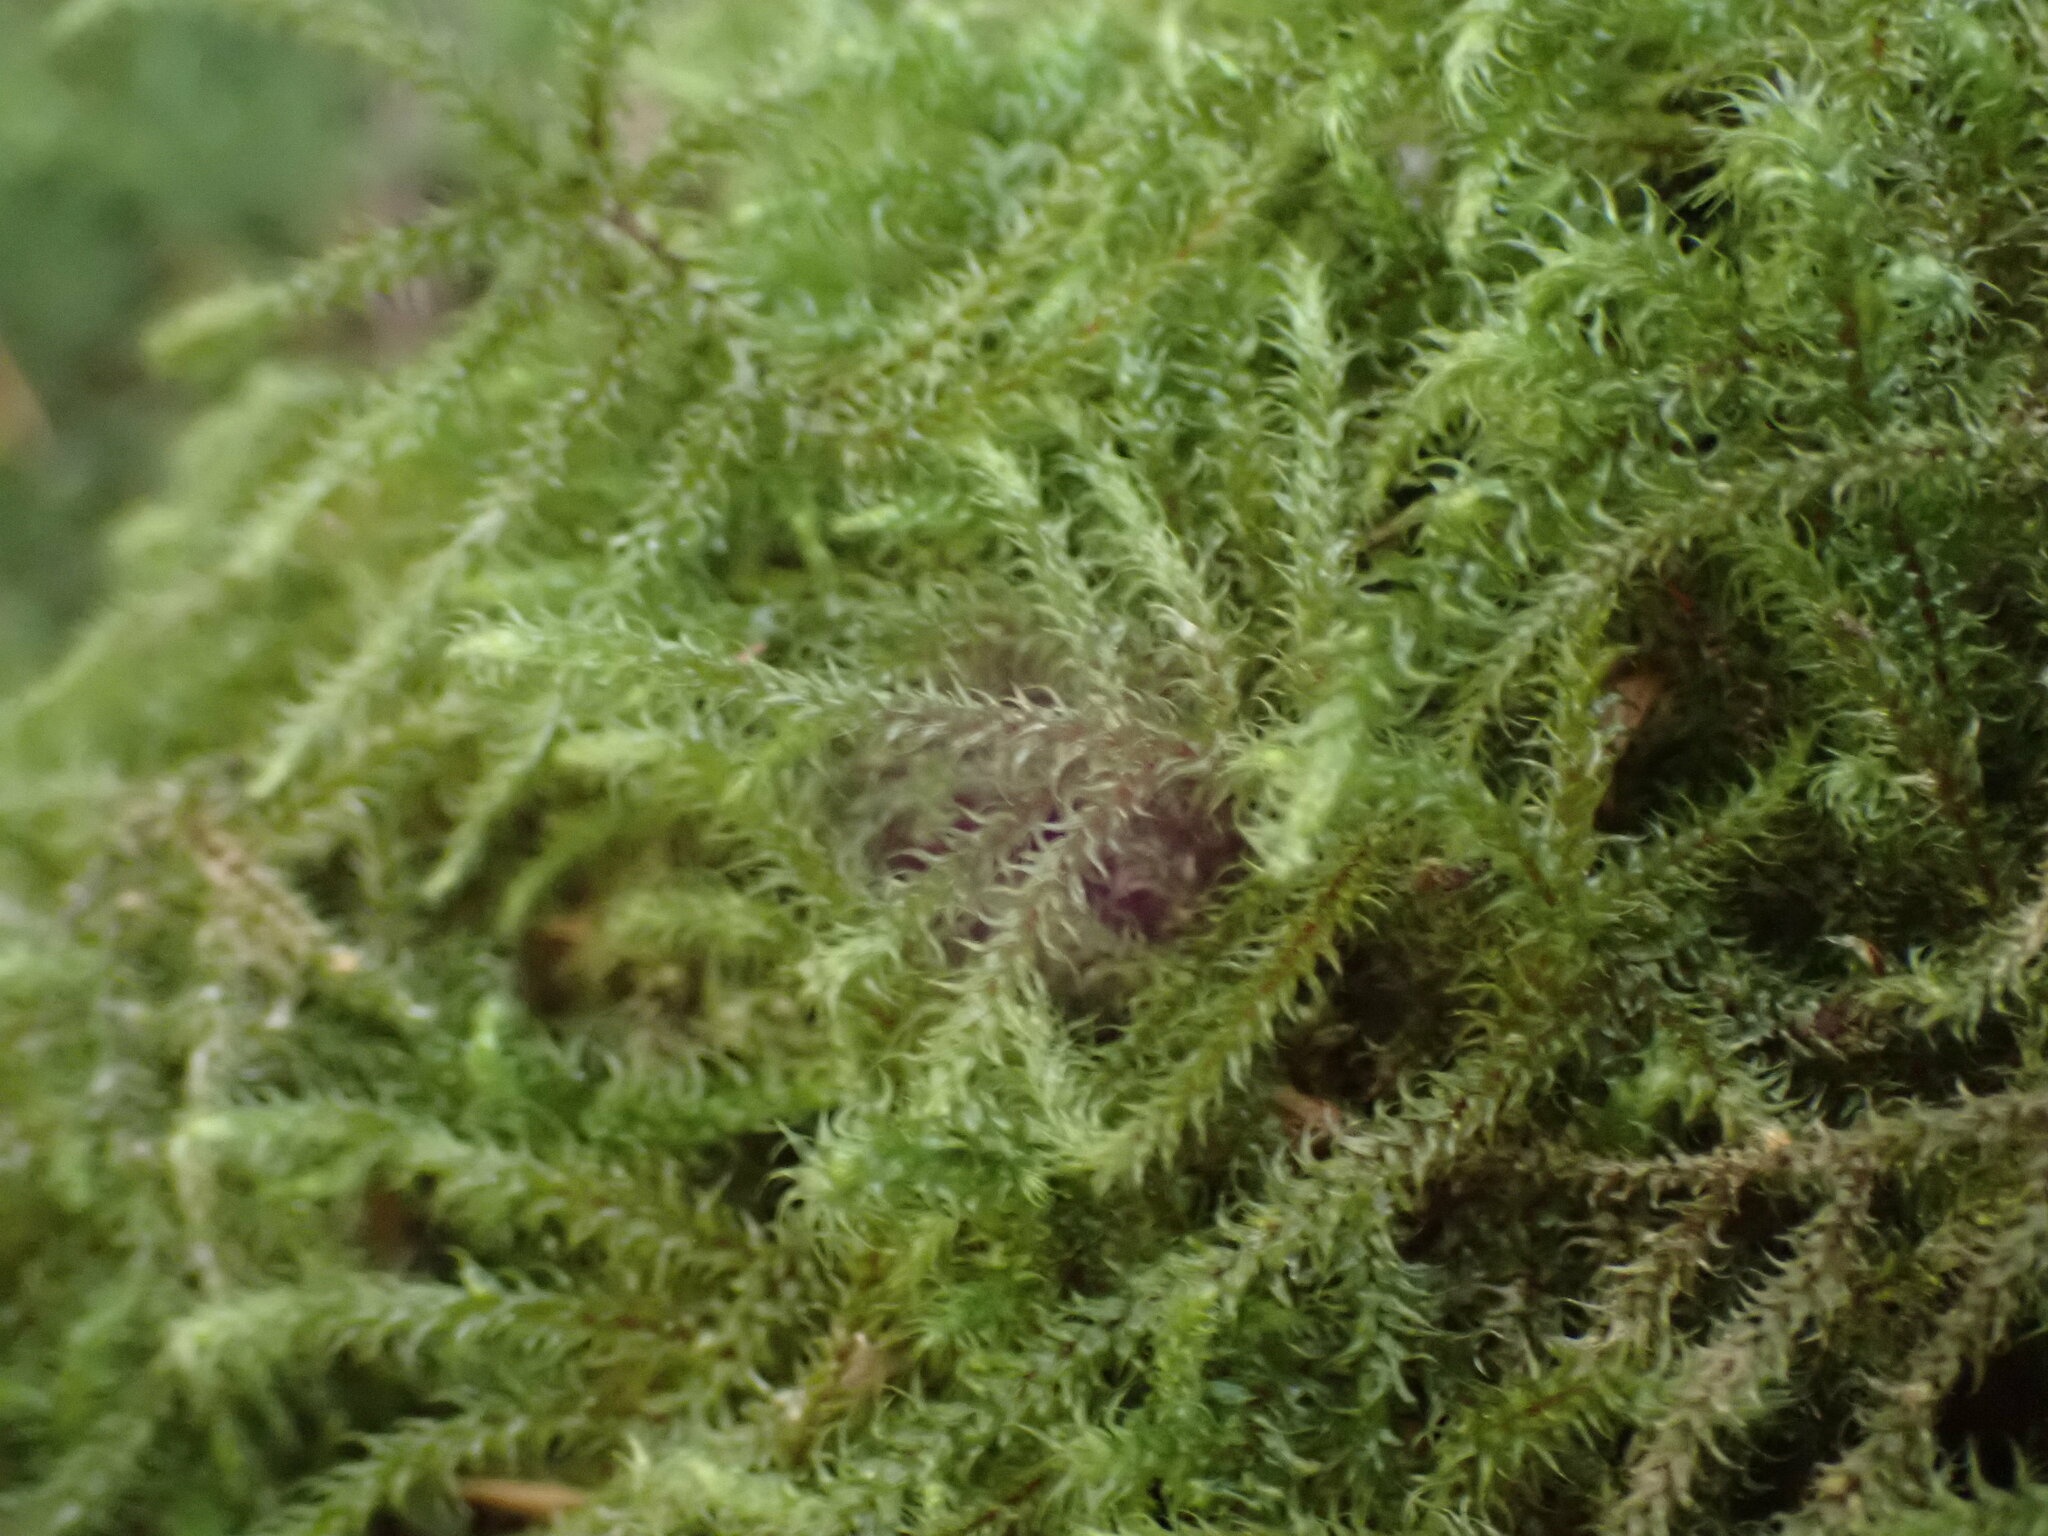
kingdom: Plantae
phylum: Bryophyta
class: Bryopsida
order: Hypnales
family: Hylocomiaceae
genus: Rhytidiadelphus
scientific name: Rhytidiadelphus loreus
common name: Lanky moss
